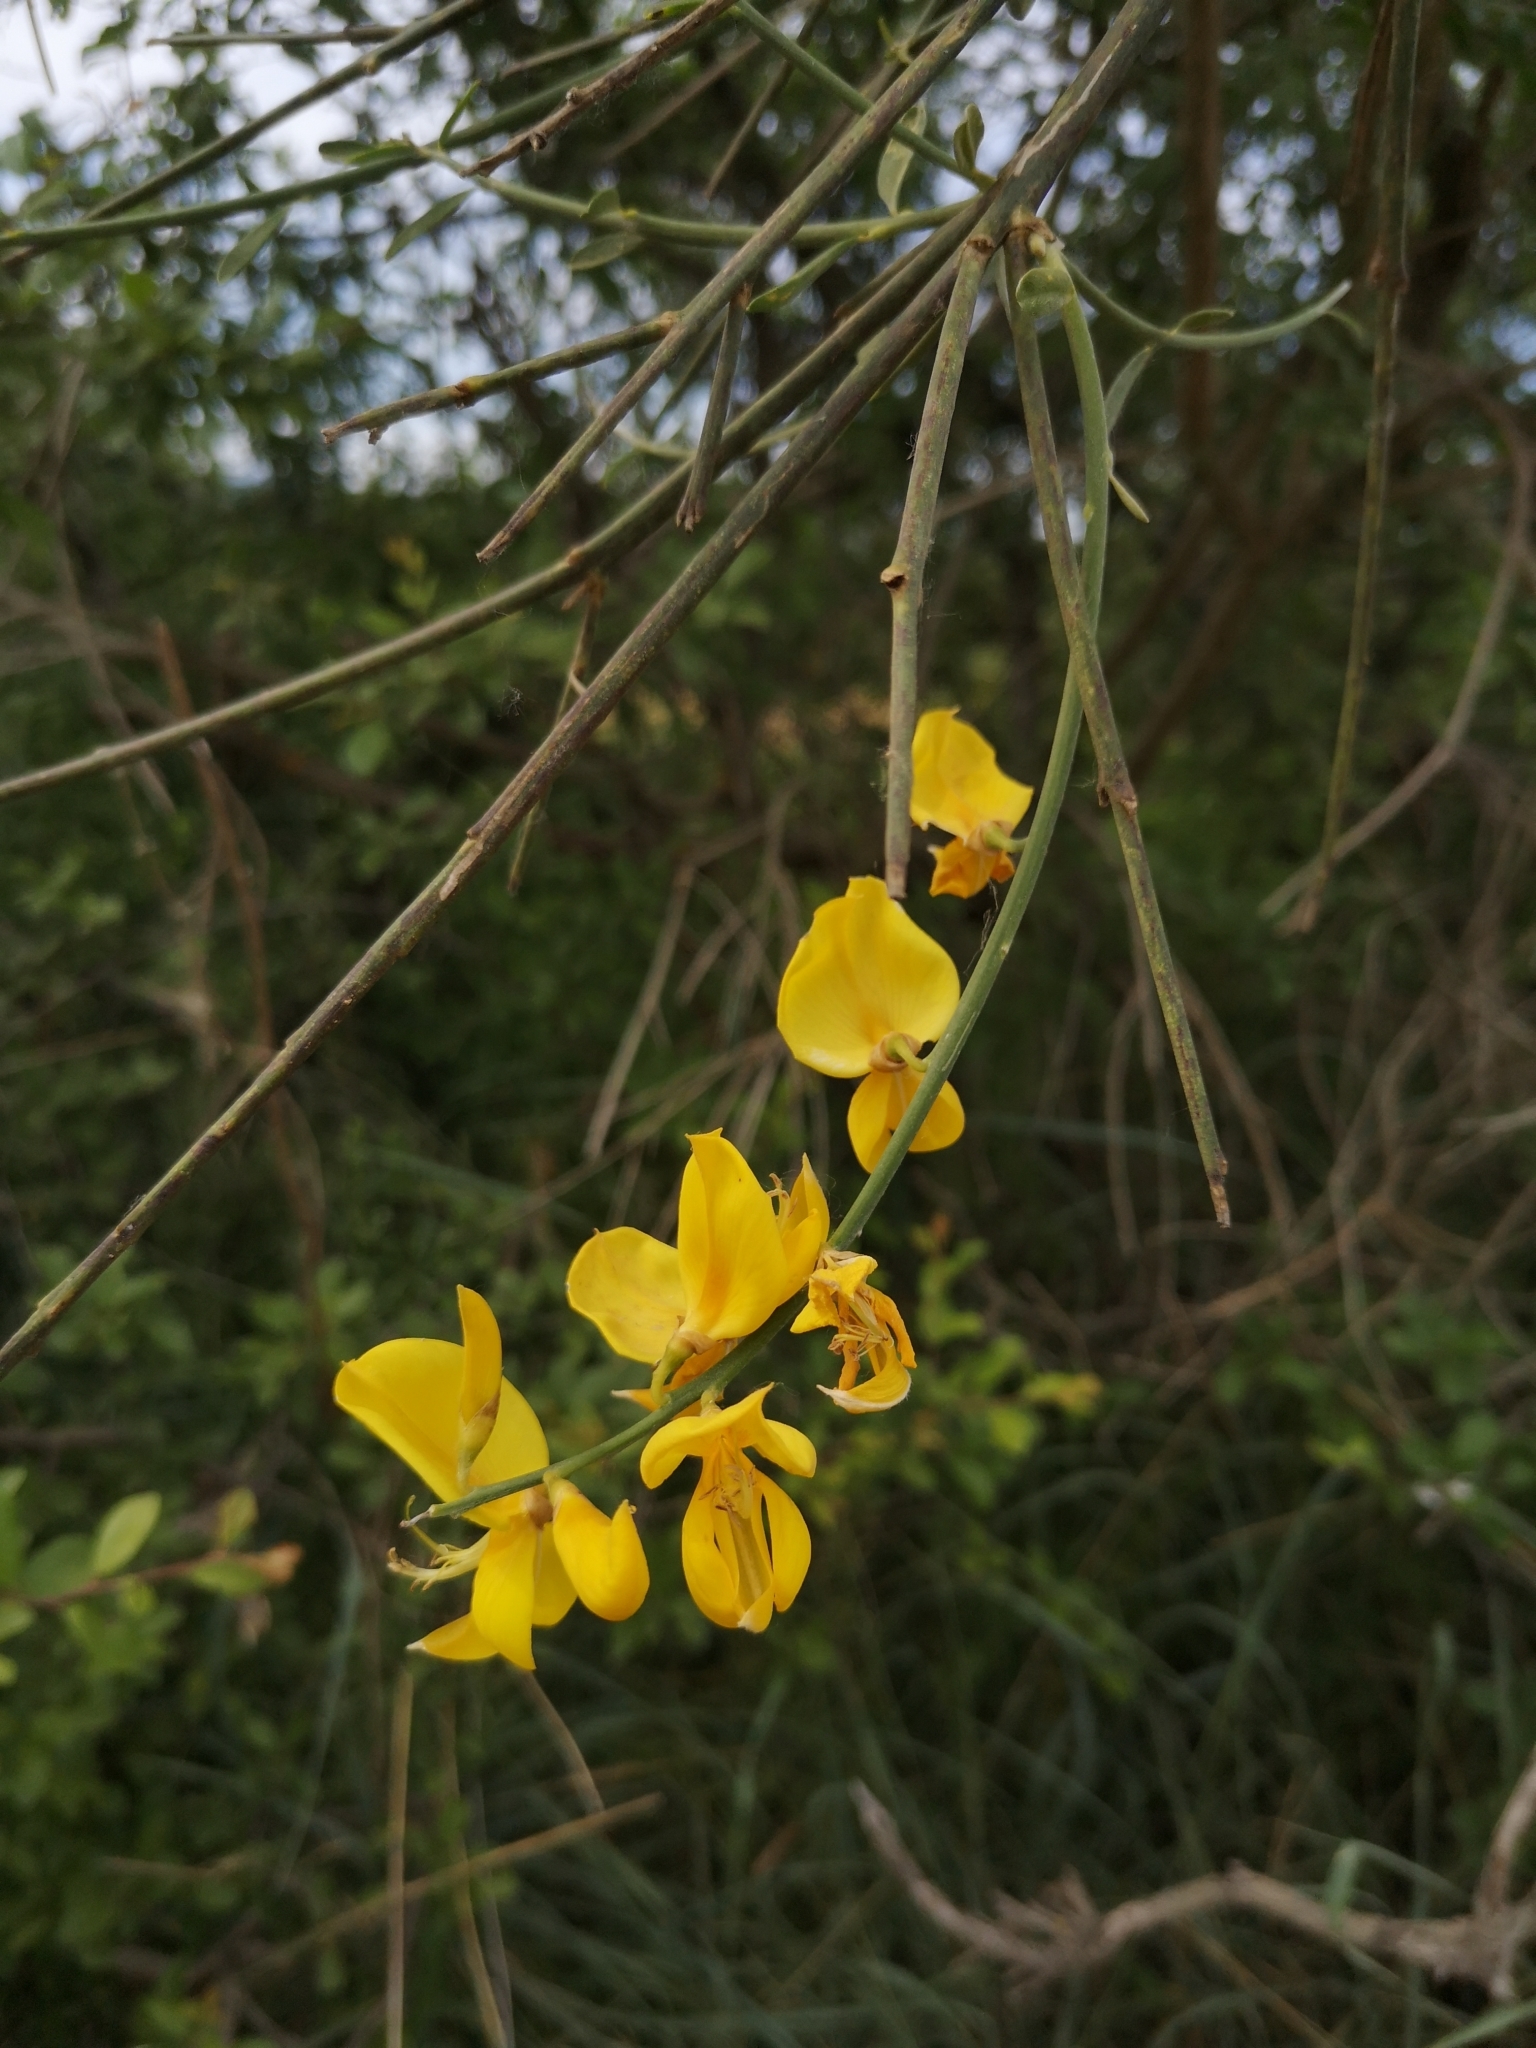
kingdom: Plantae
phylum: Tracheophyta
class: Magnoliopsida
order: Fabales
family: Fabaceae
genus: Spartium
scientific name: Spartium junceum
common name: Spanish broom
